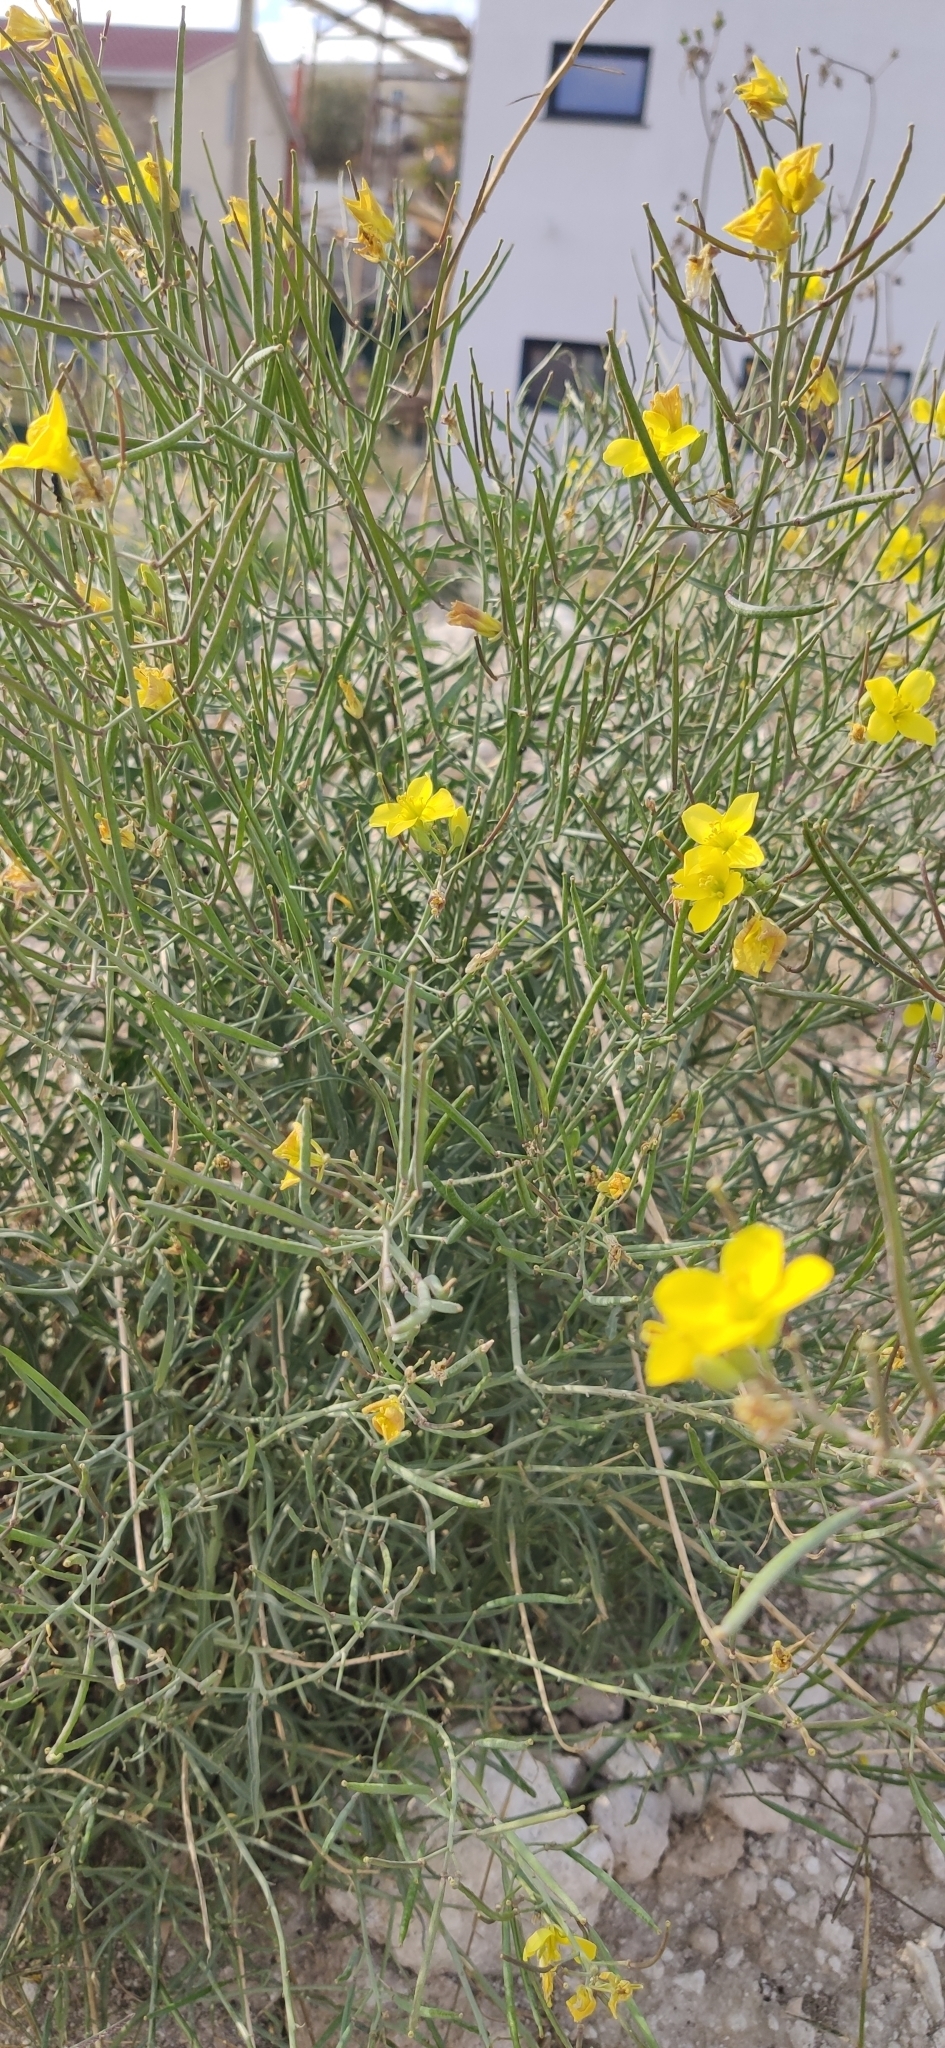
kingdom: Plantae
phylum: Tracheophyta
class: Magnoliopsida
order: Brassicales
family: Brassicaceae
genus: Diplotaxis
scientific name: Diplotaxis tenuifolia
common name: Perennial wall-rocket
